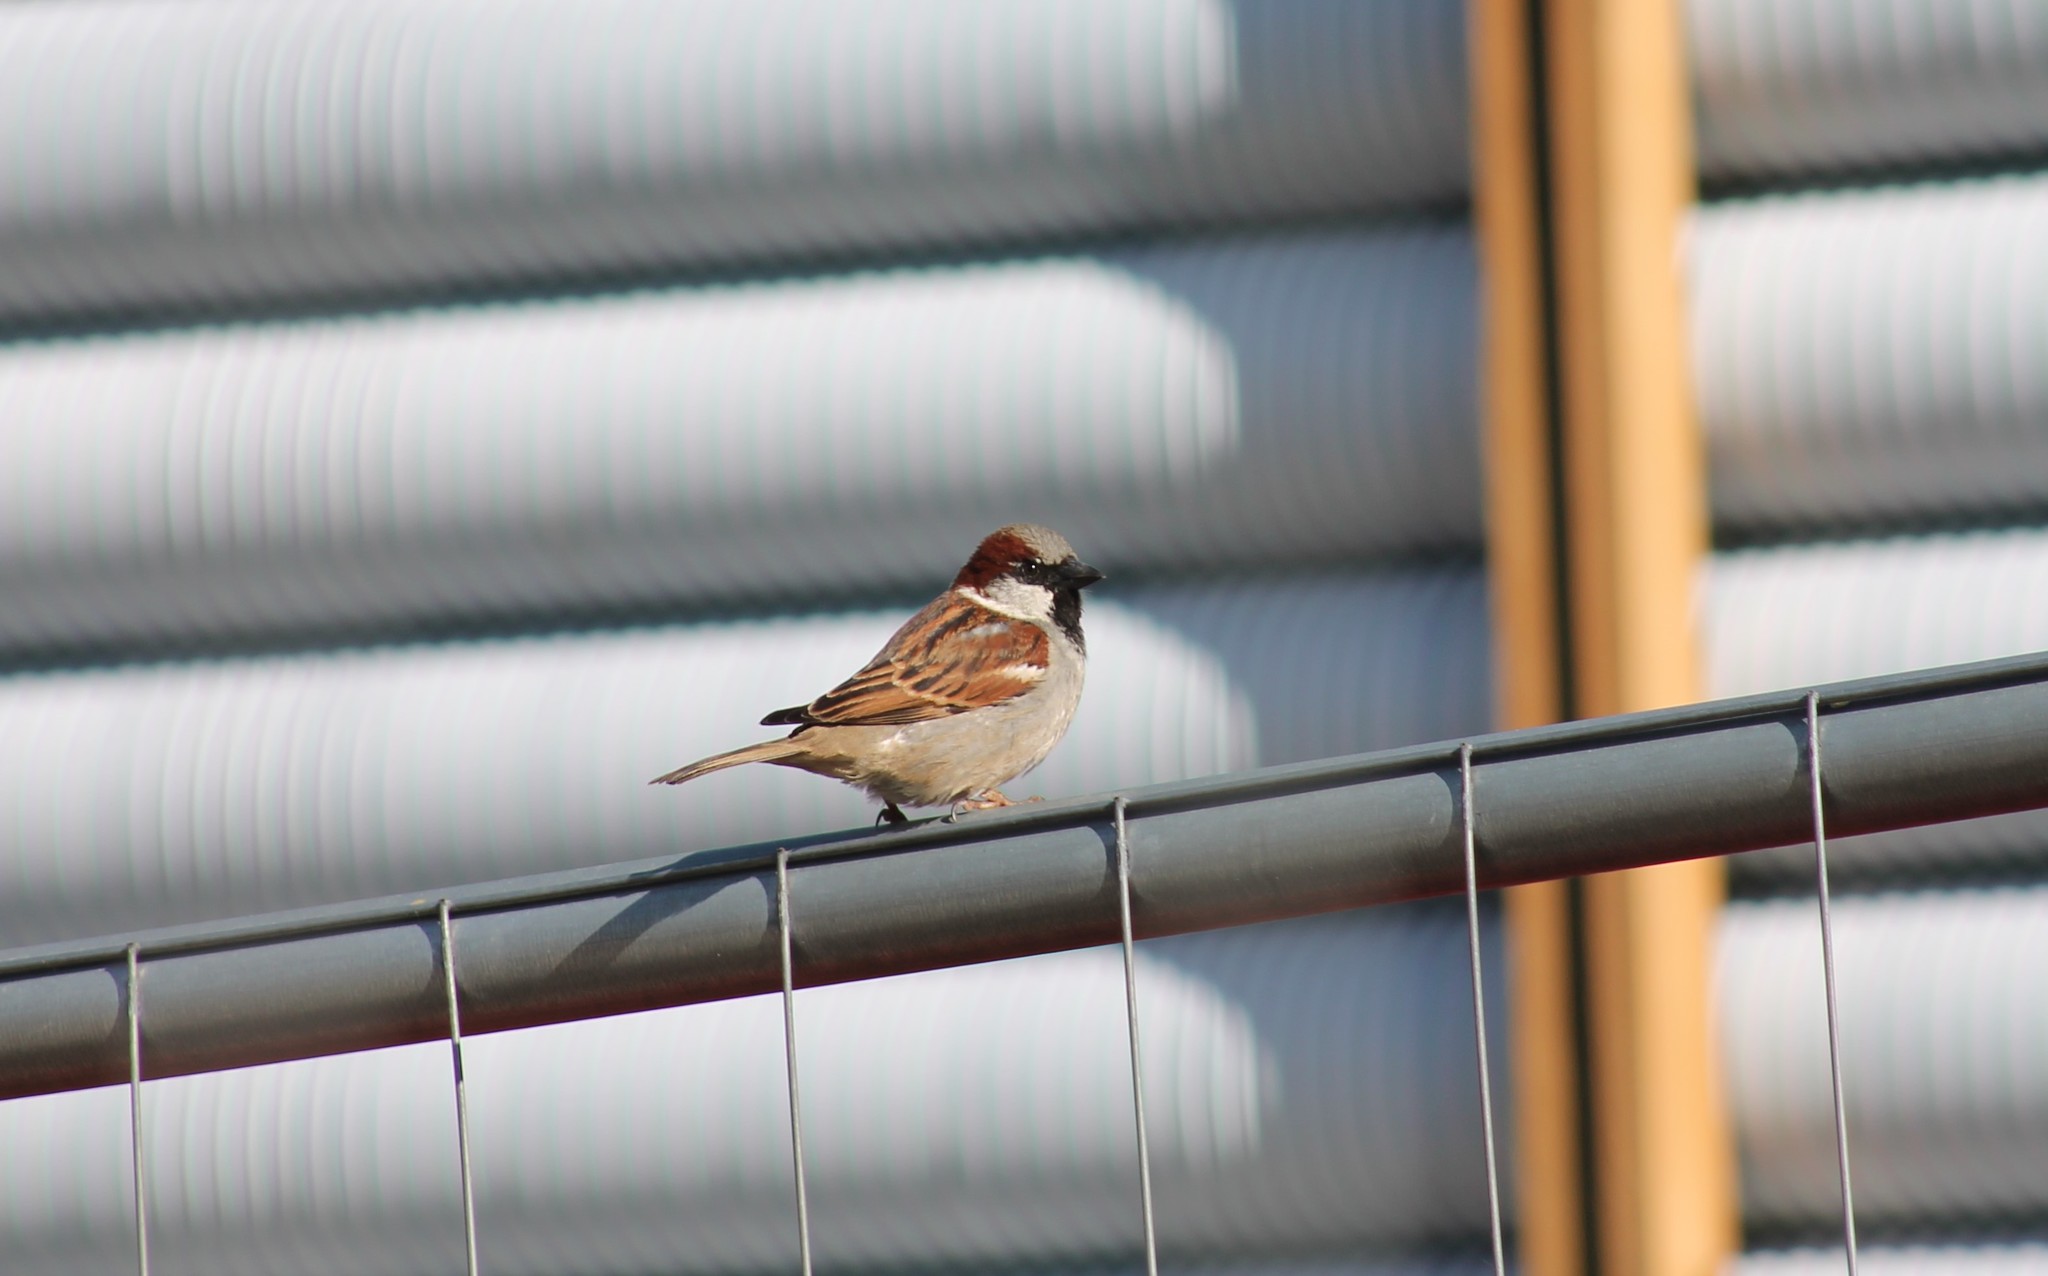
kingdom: Animalia
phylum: Chordata
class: Aves
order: Passeriformes
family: Passeridae
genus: Passer
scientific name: Passer domesticus
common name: House sparrow
